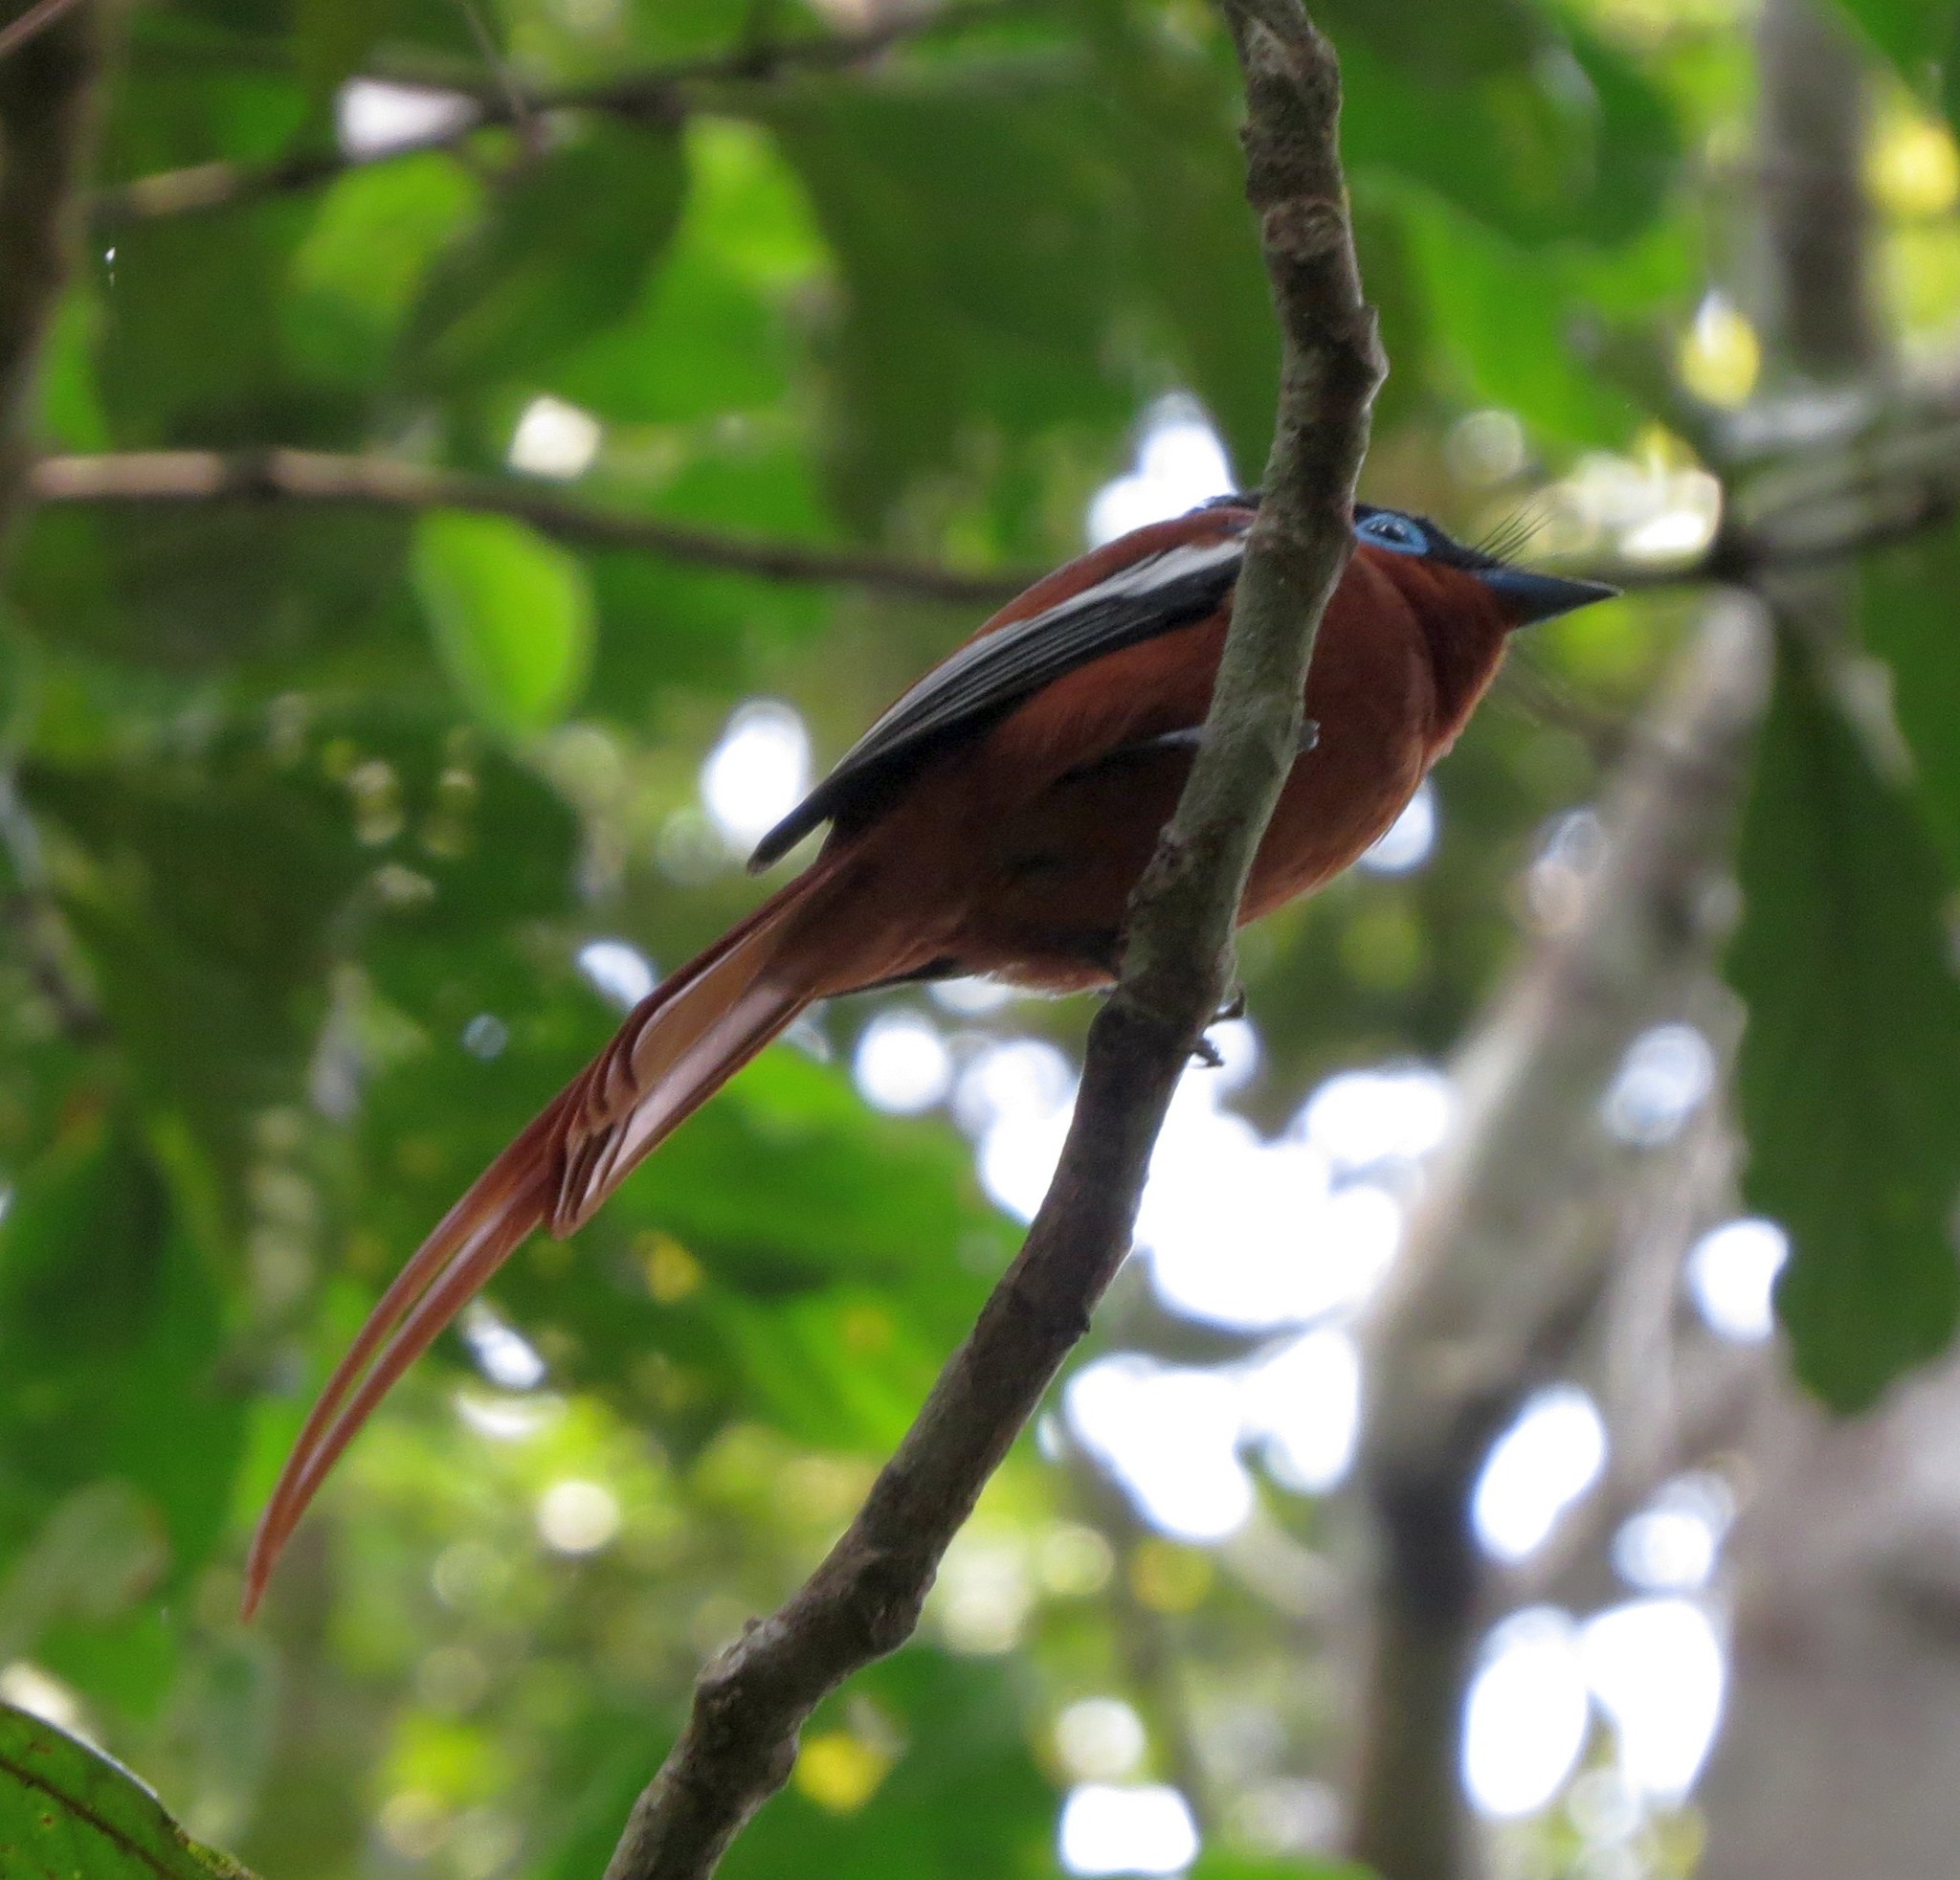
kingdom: Animalia
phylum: Chordata
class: Aves
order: Passeriformes
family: Monarchidae
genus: Terpsiphone
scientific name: Terpsiphone mutata
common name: Malagasy paradise flycatcher
